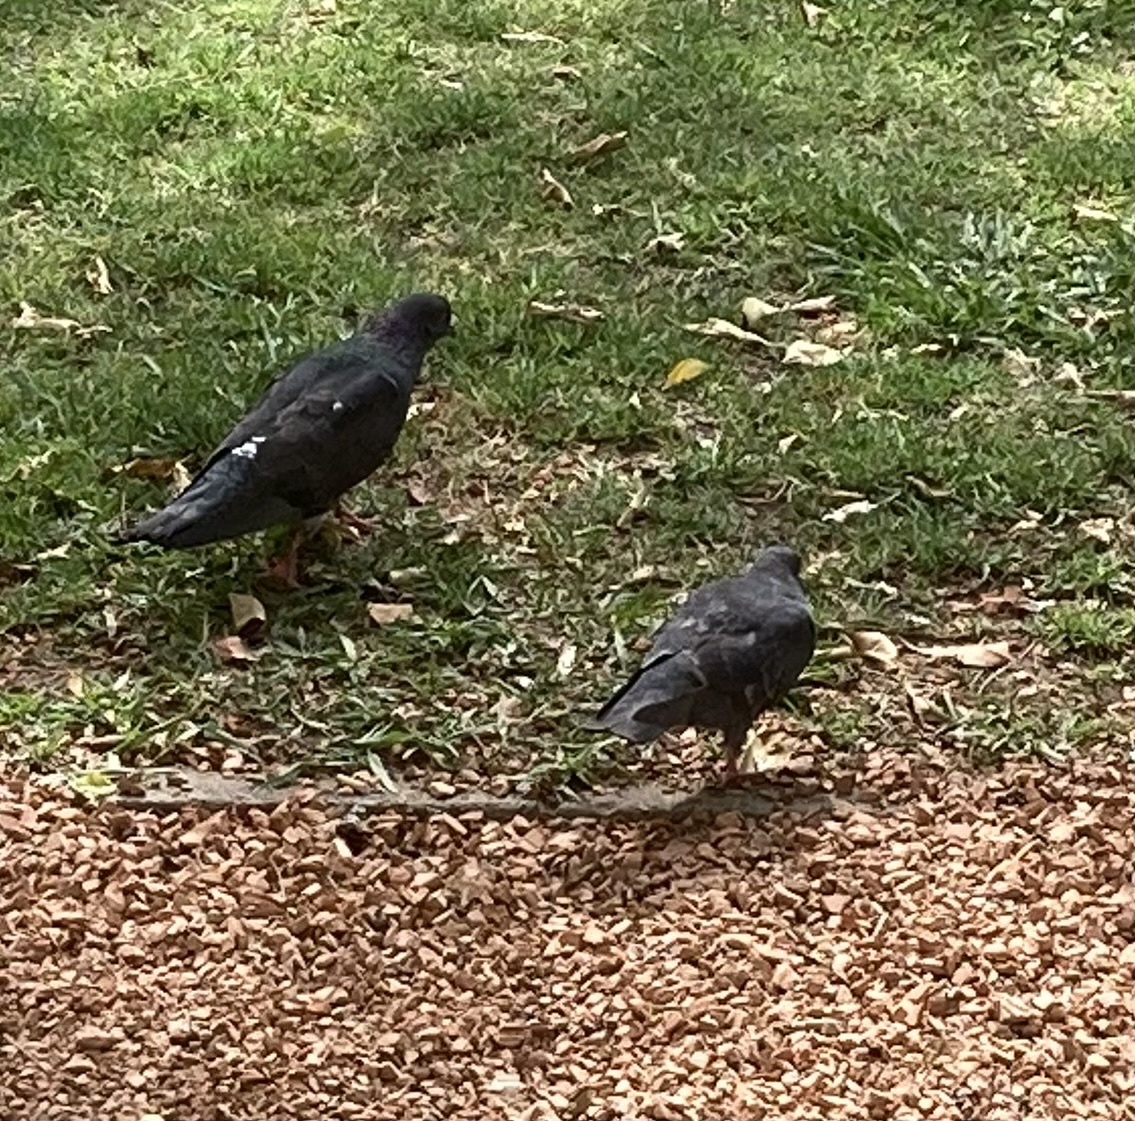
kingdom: Animalia
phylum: Chordata
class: Aves
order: Columbiformes
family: Columbidae
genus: Columba
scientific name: Columba livia
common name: Rock pigeon
